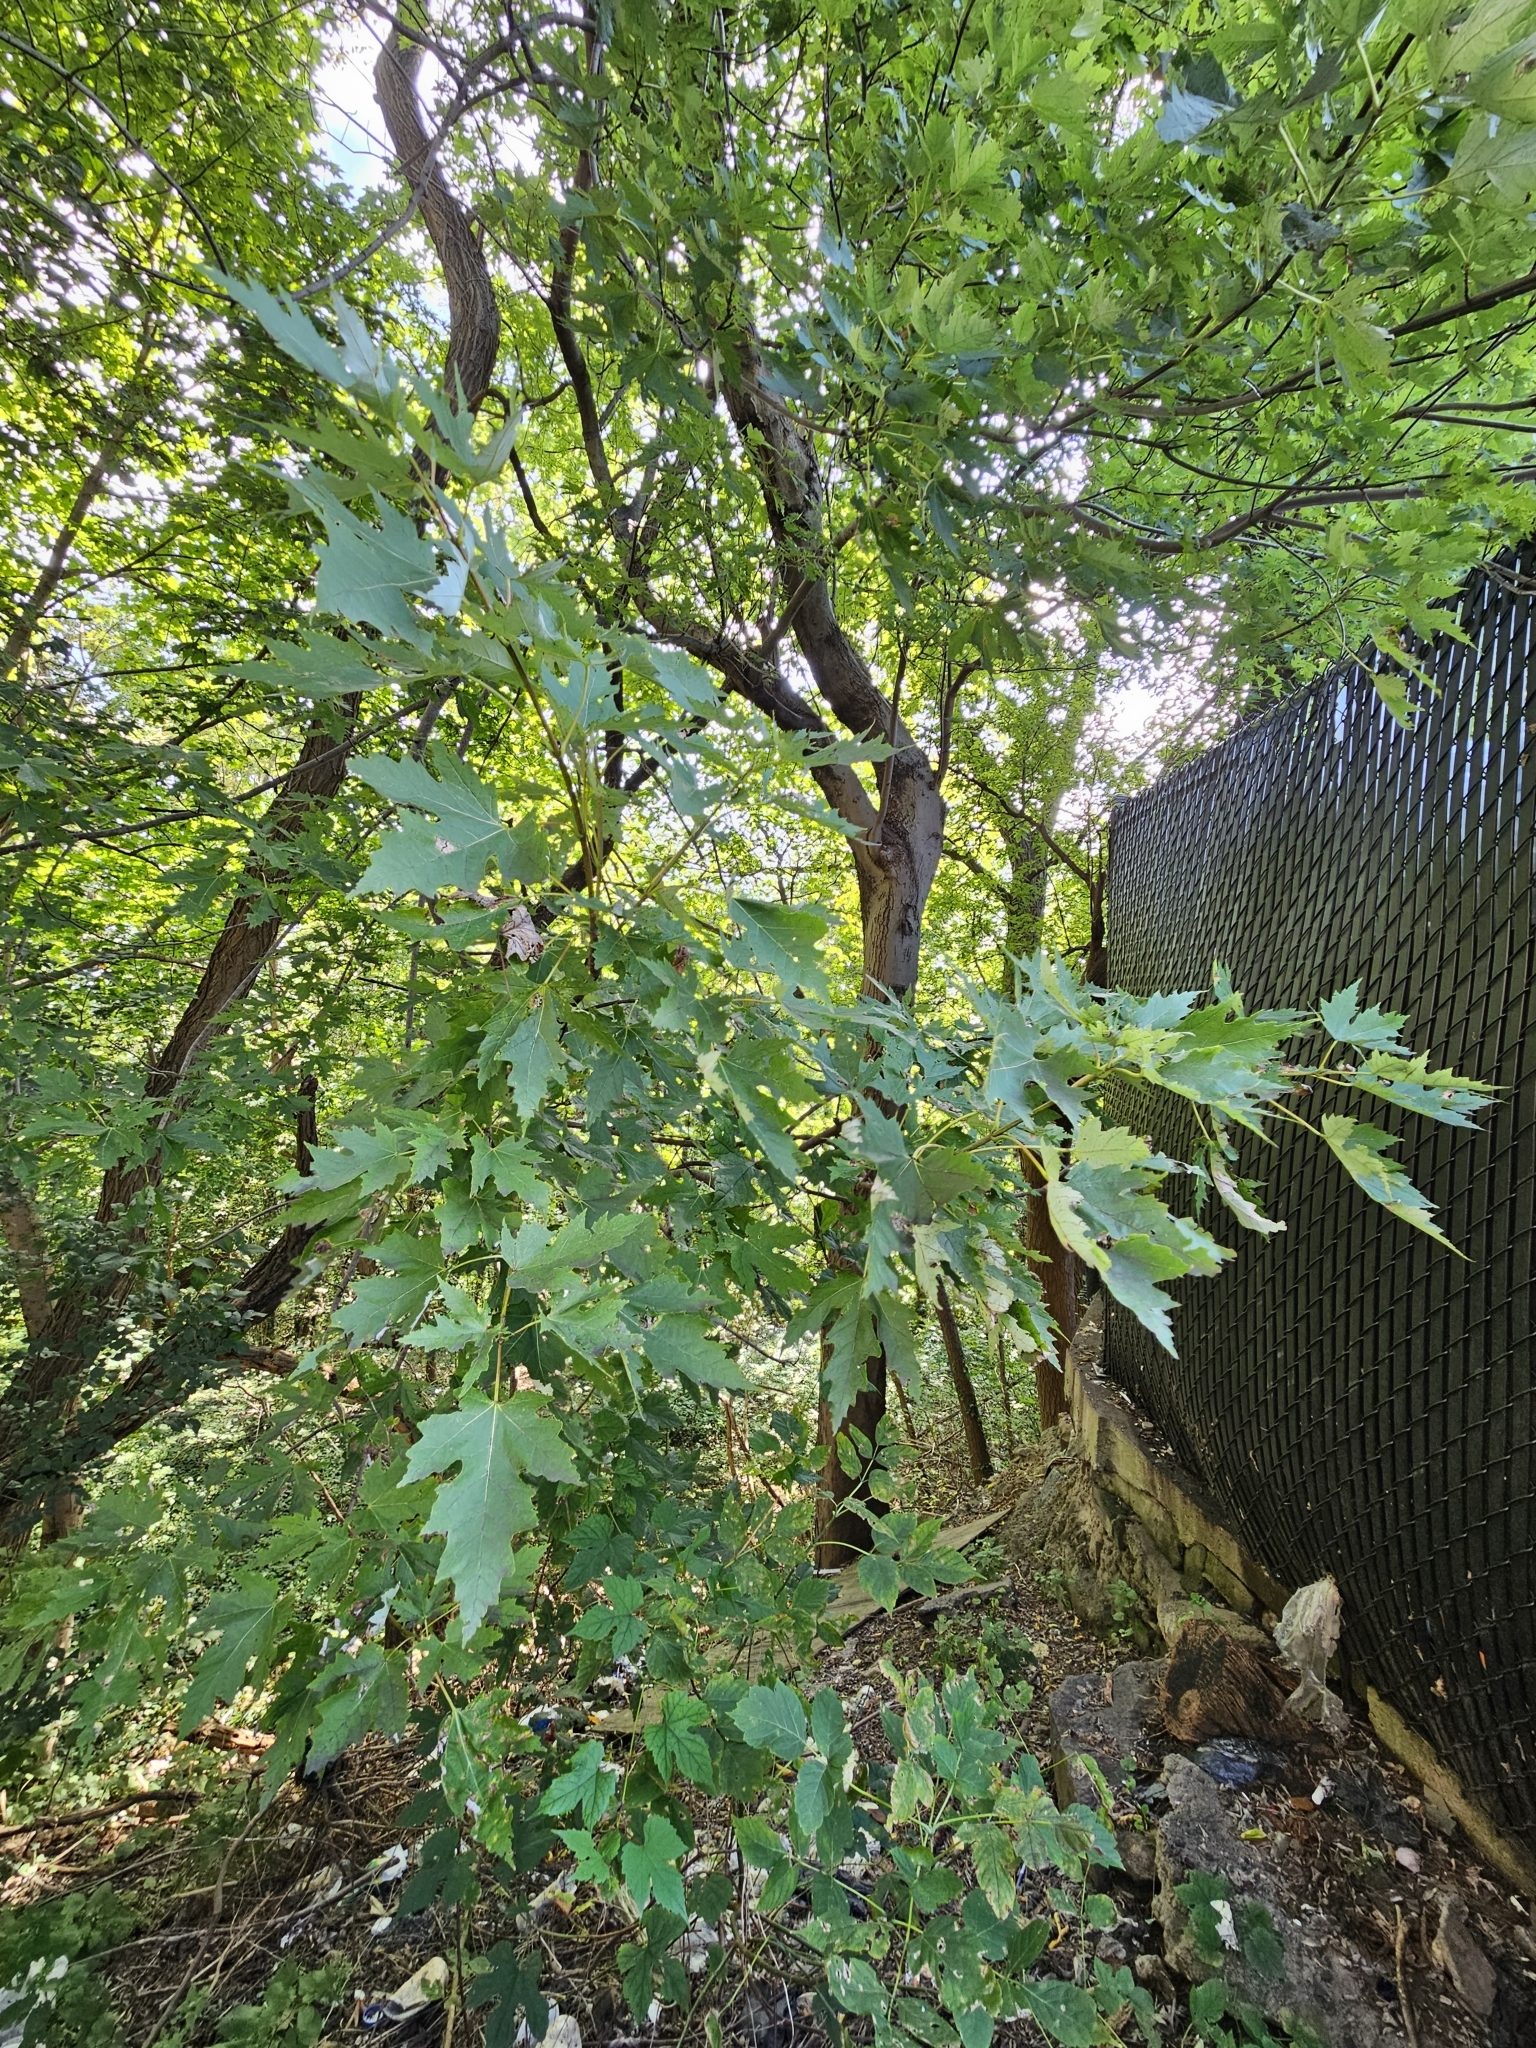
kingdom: Plantae
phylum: Tracheophyta
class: Magnoliopsida
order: Sapindales
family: Sapindaceae
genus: Acer
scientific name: Acer saccharinum
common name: Silver maple
